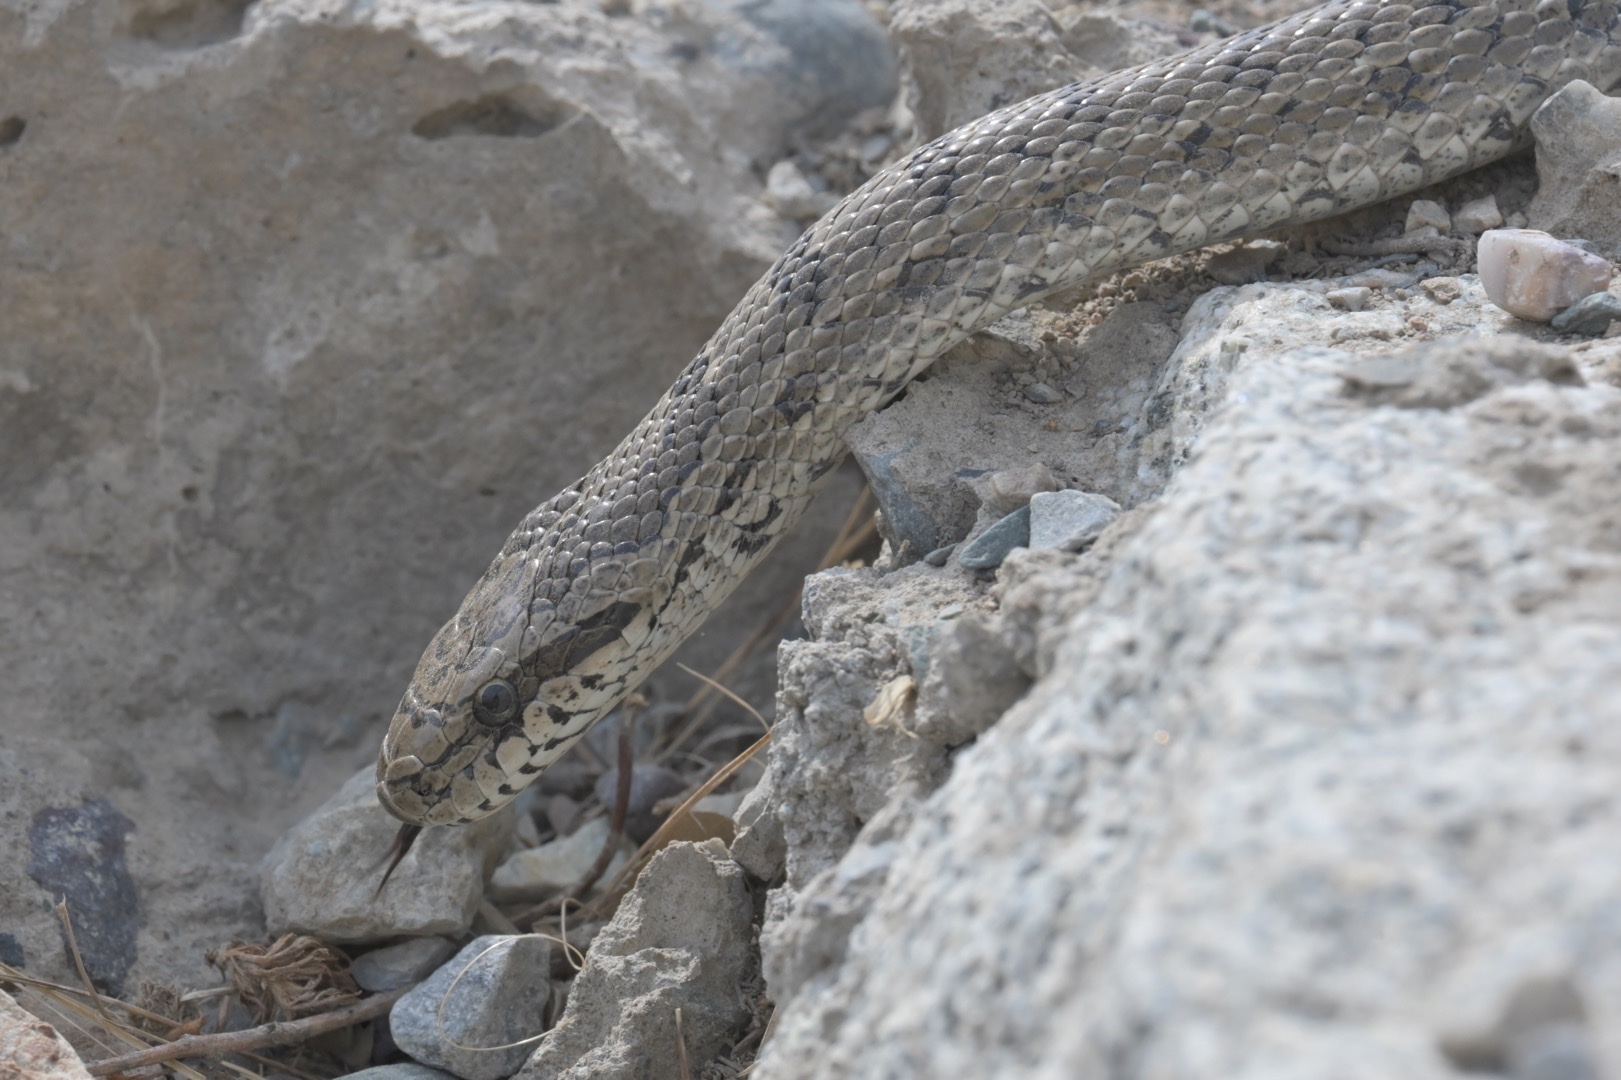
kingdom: Animalia
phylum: Chordata
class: Squamata
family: Colubridae
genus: Elaphe
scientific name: Elaphe dione
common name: Dione ratsnake
